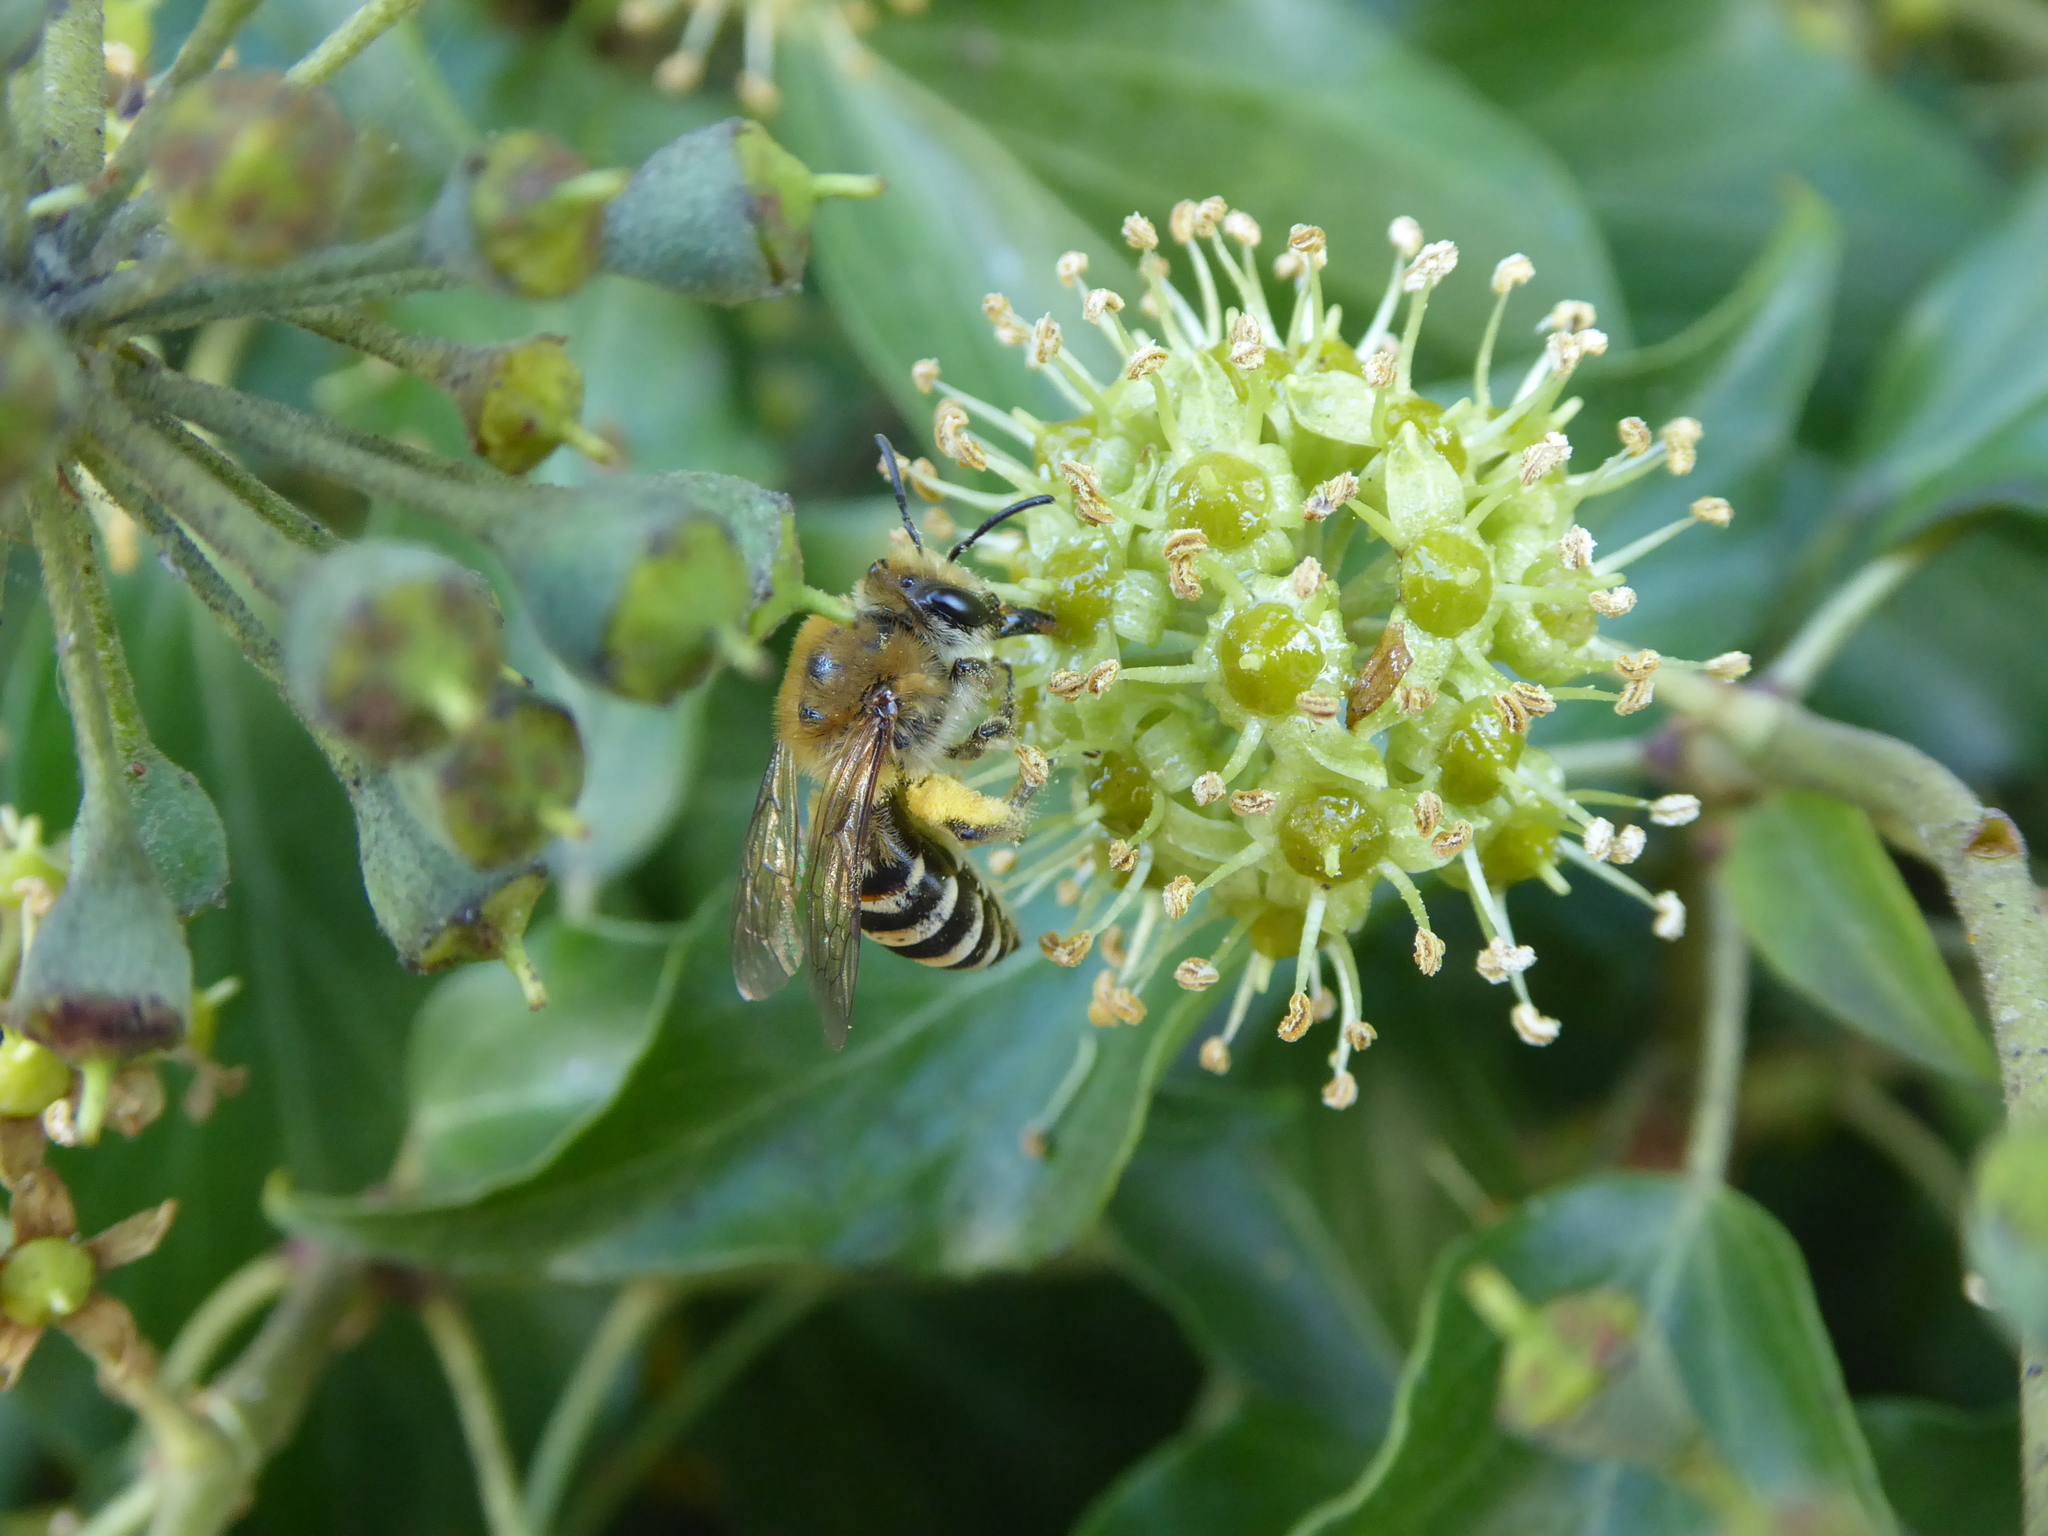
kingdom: Animalia
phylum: Arthropoda
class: Insecta
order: Hymenoptera
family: Colletidae
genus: Colletes
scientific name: Colletes hederae
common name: Ivy bee
